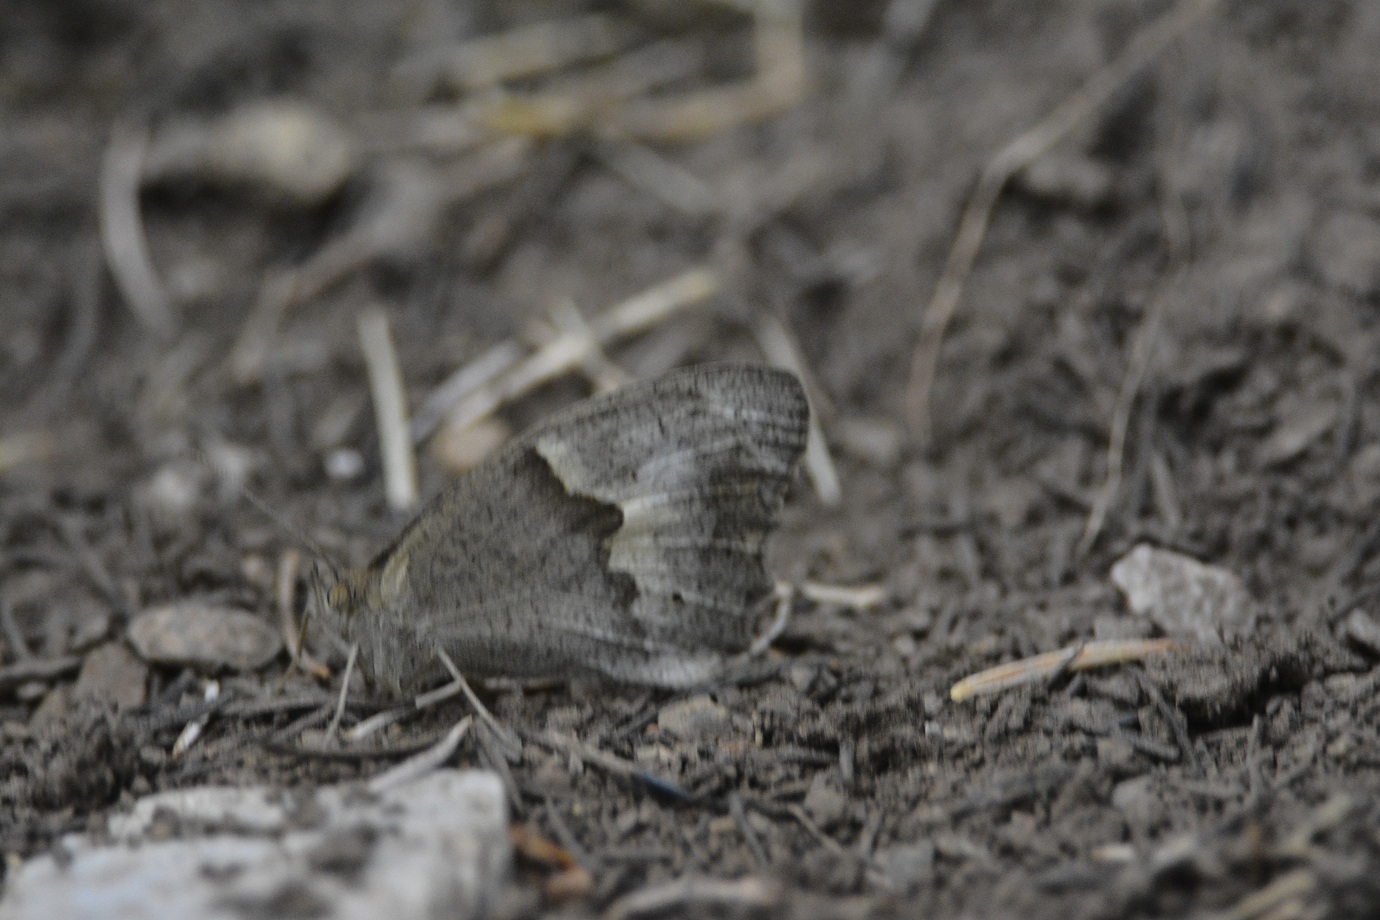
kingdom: Animalia
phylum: Arthropoda
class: Insecta
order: Lepidoptera
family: Nymphalidae
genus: Maniola
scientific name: Maniola jurtina
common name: Meadow brown
